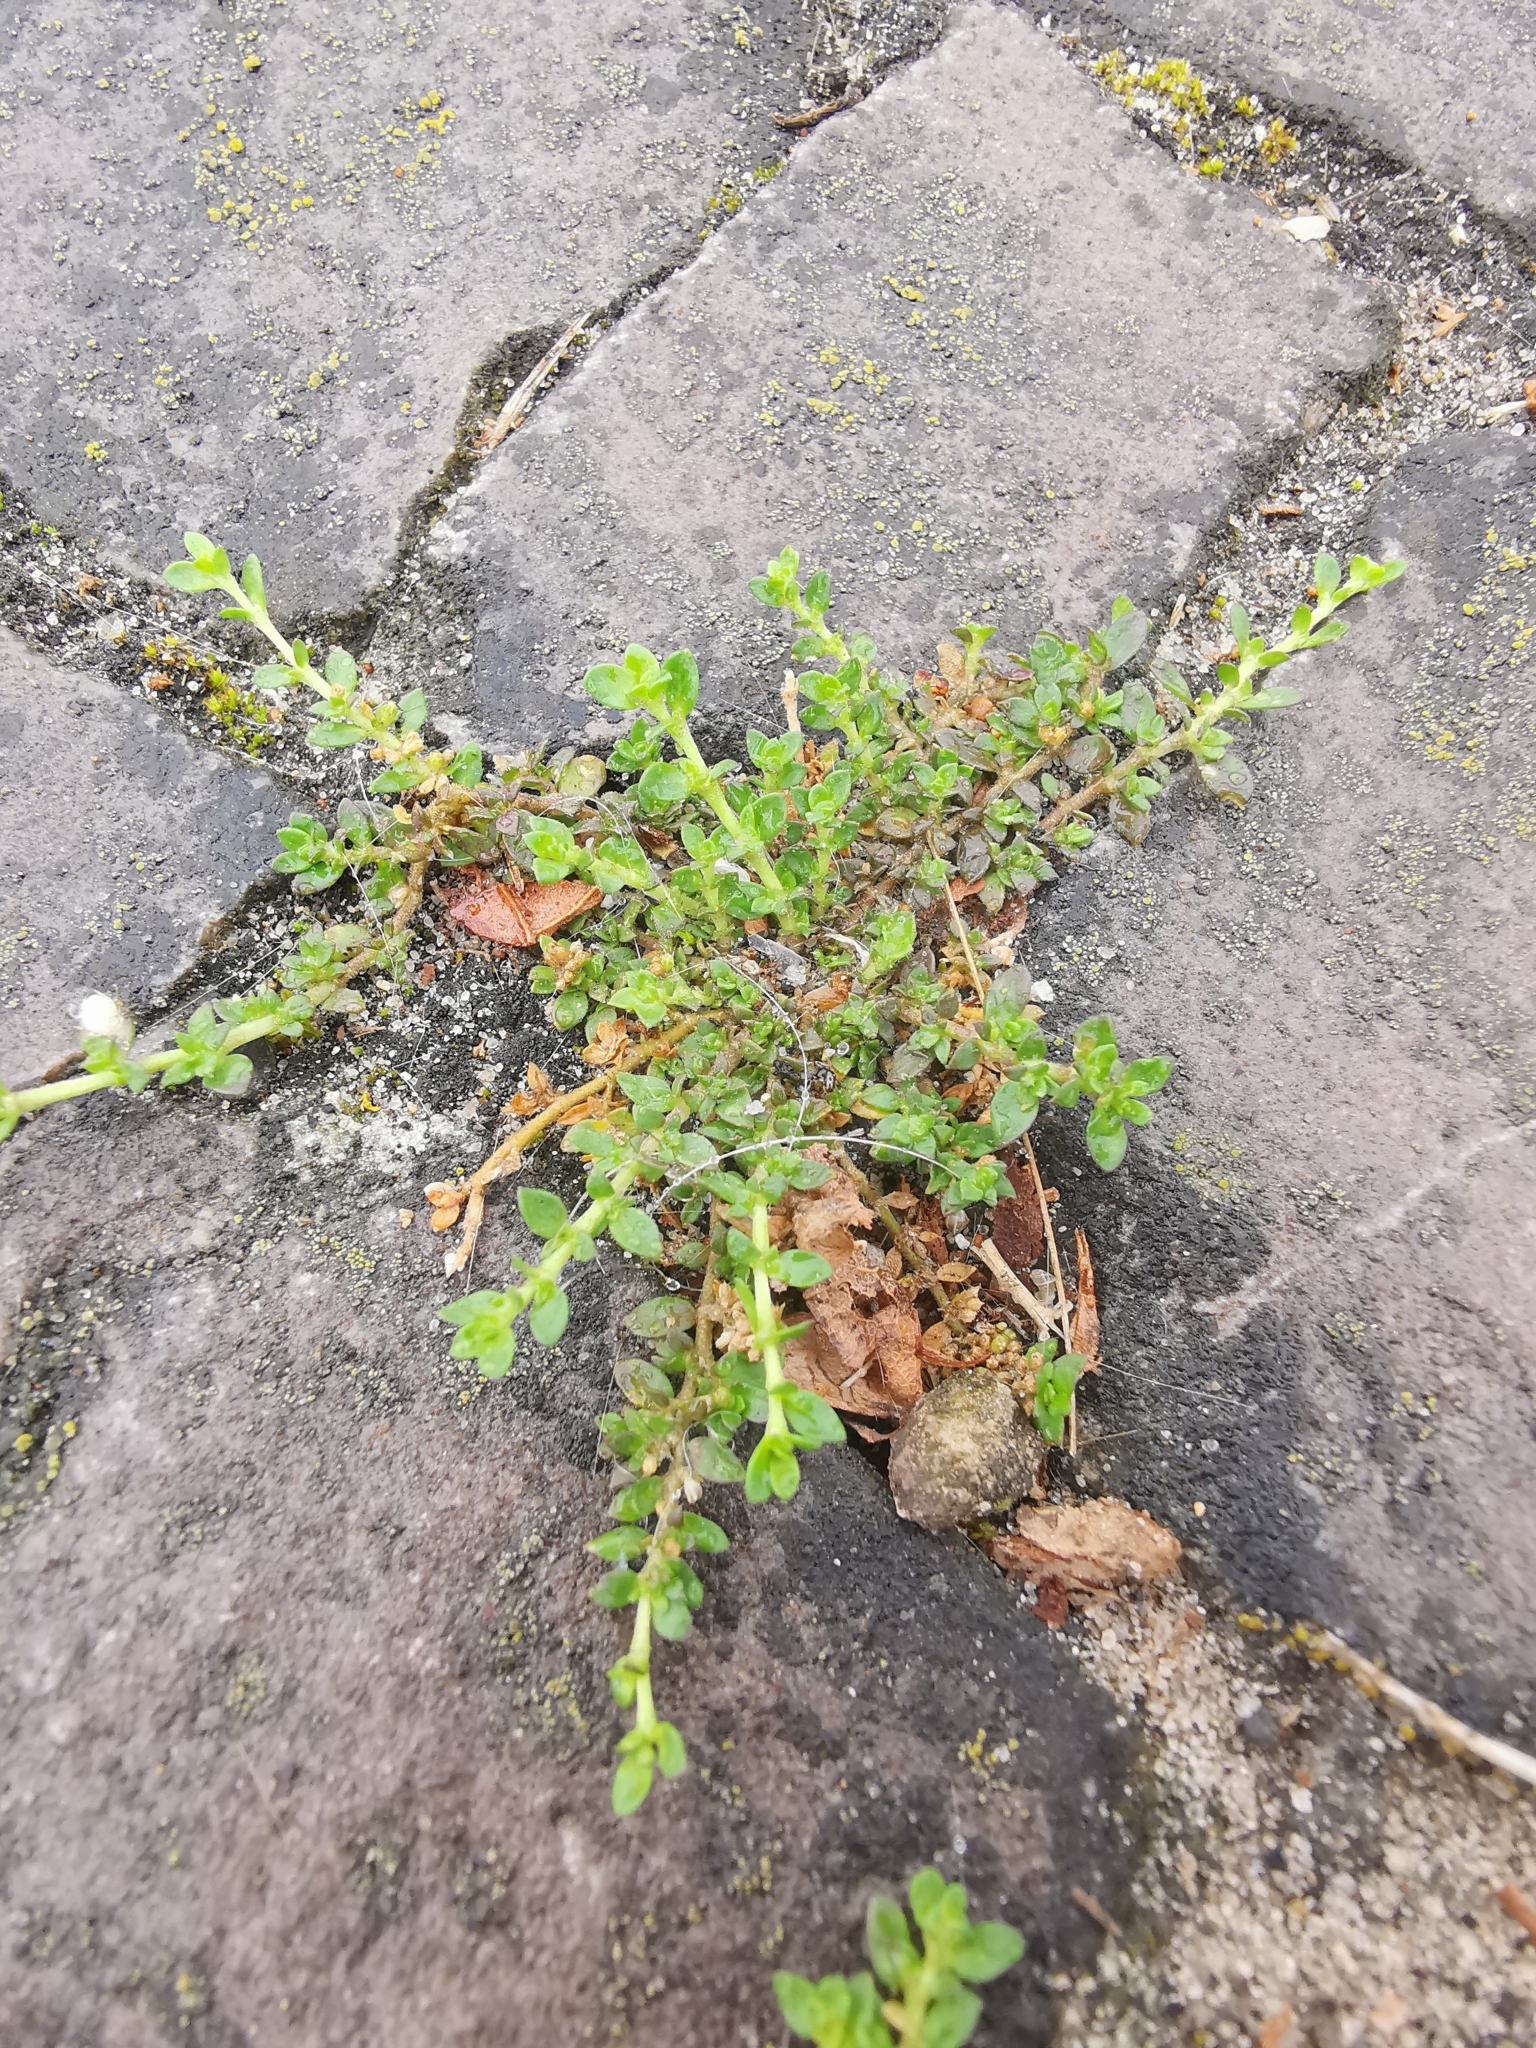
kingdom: Plantae
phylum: Tracheophyta
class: Magnoliopsida
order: Caryophyllales
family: Caryophyllaceae
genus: Herniaria
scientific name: Herniaria glabra
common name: Smooth rupturewort
